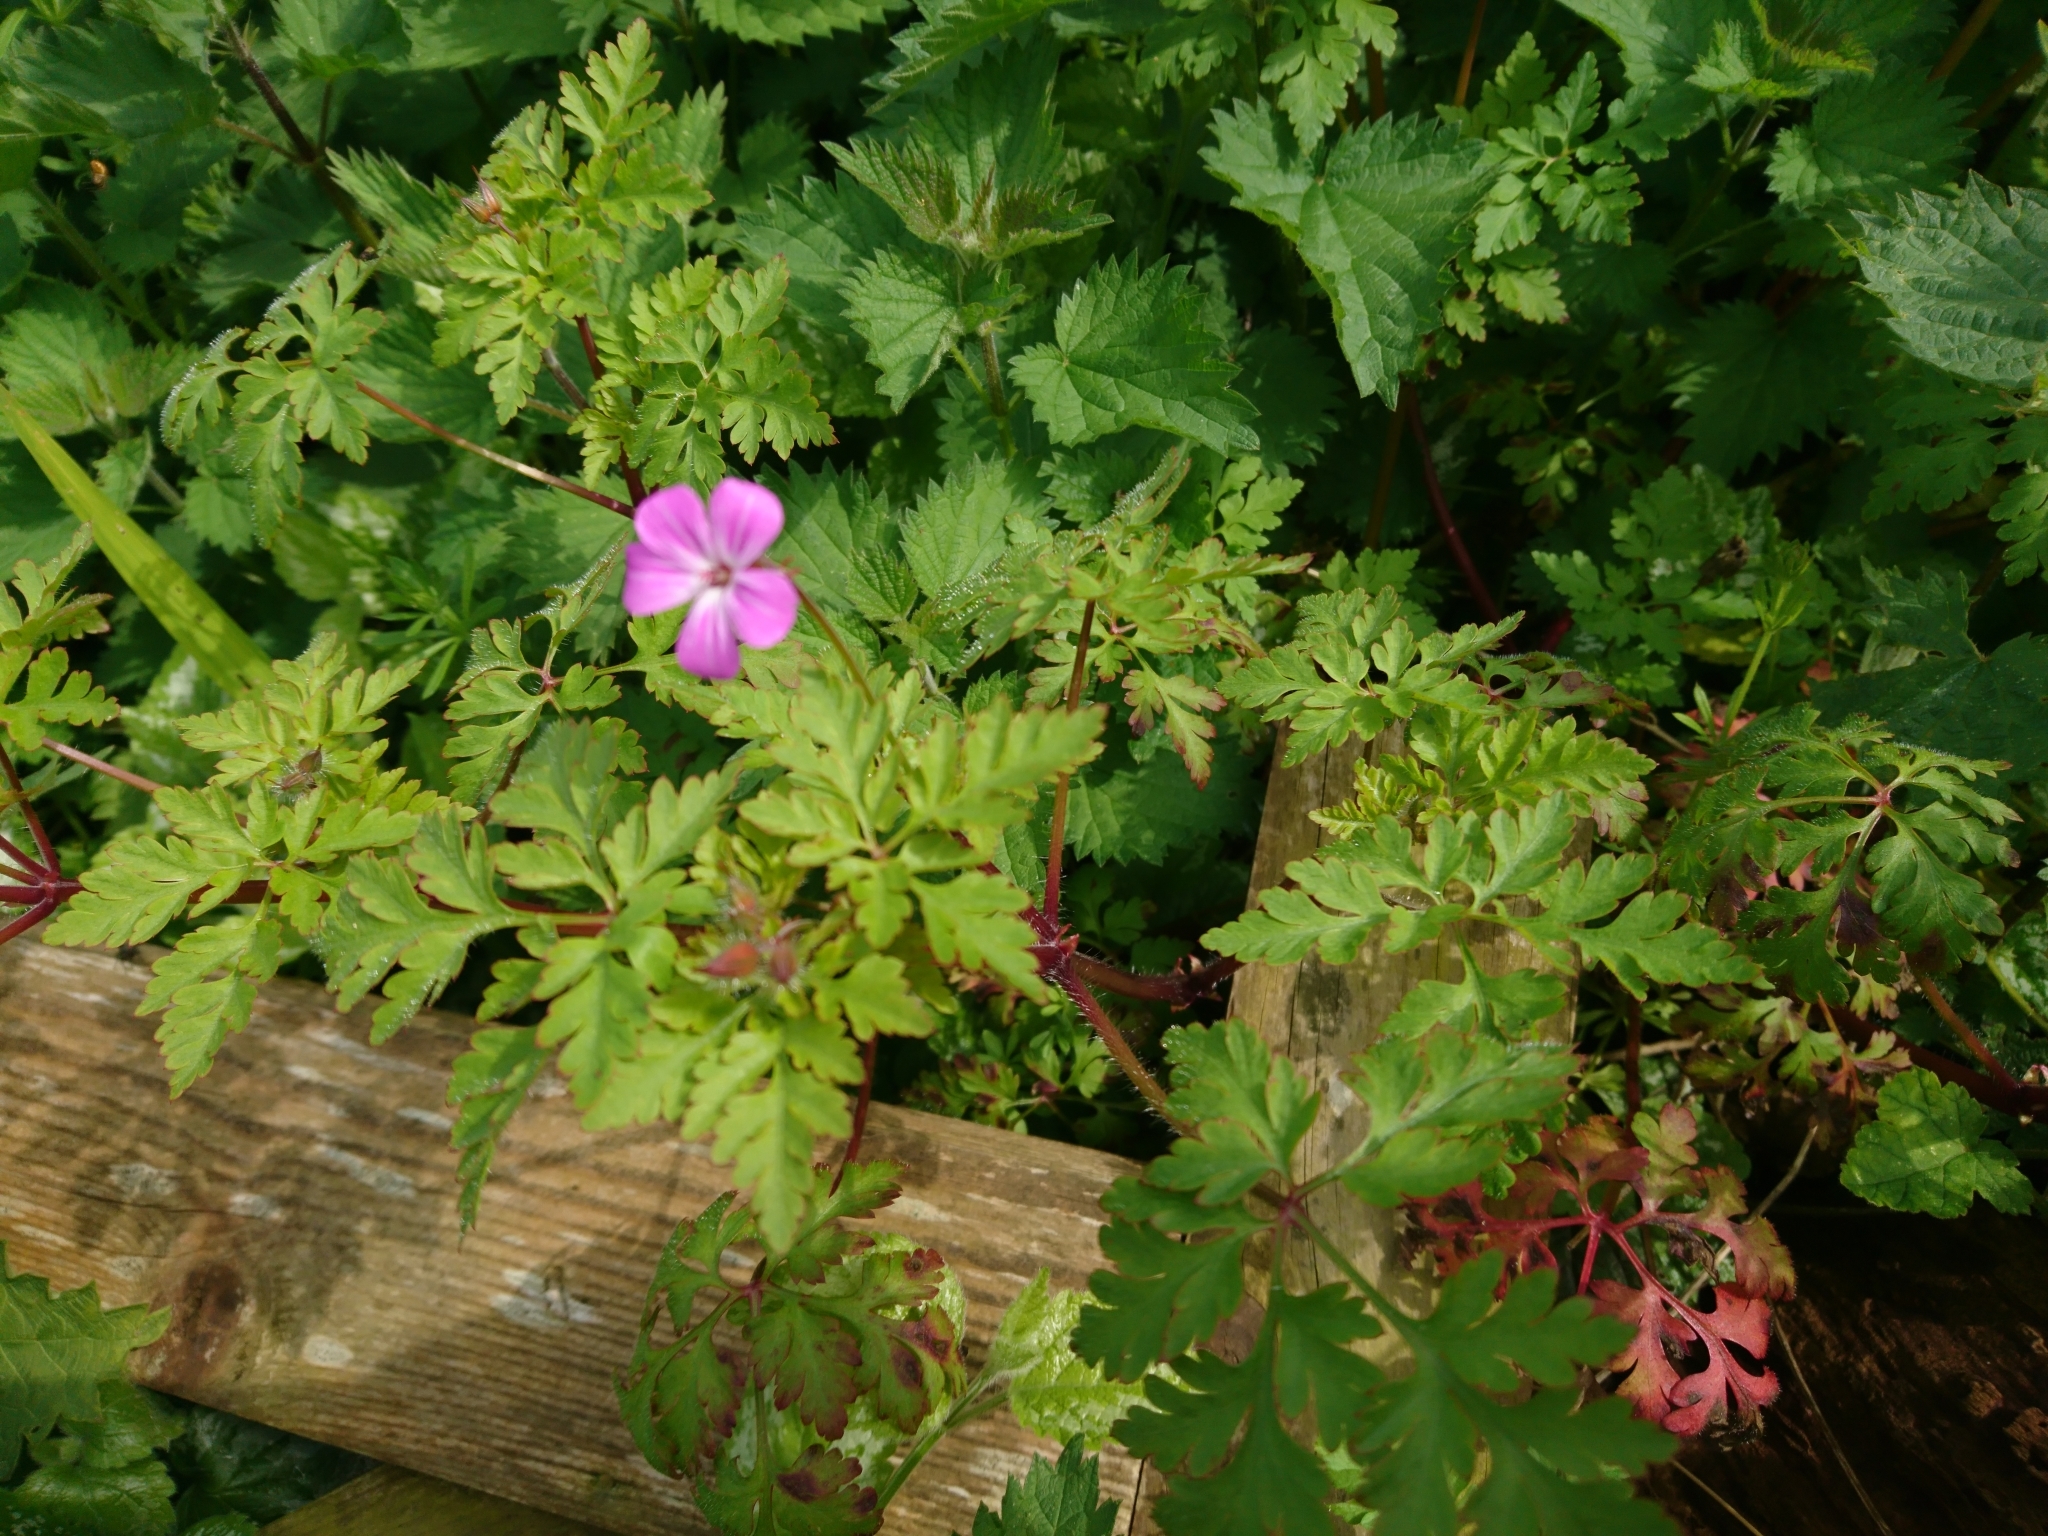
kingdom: Plantae
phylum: Tracheophyta
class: Magnoliopsida
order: Geraniales
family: Geraniaceae
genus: Geranium
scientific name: Geranium robertianum
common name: Herb-robert
